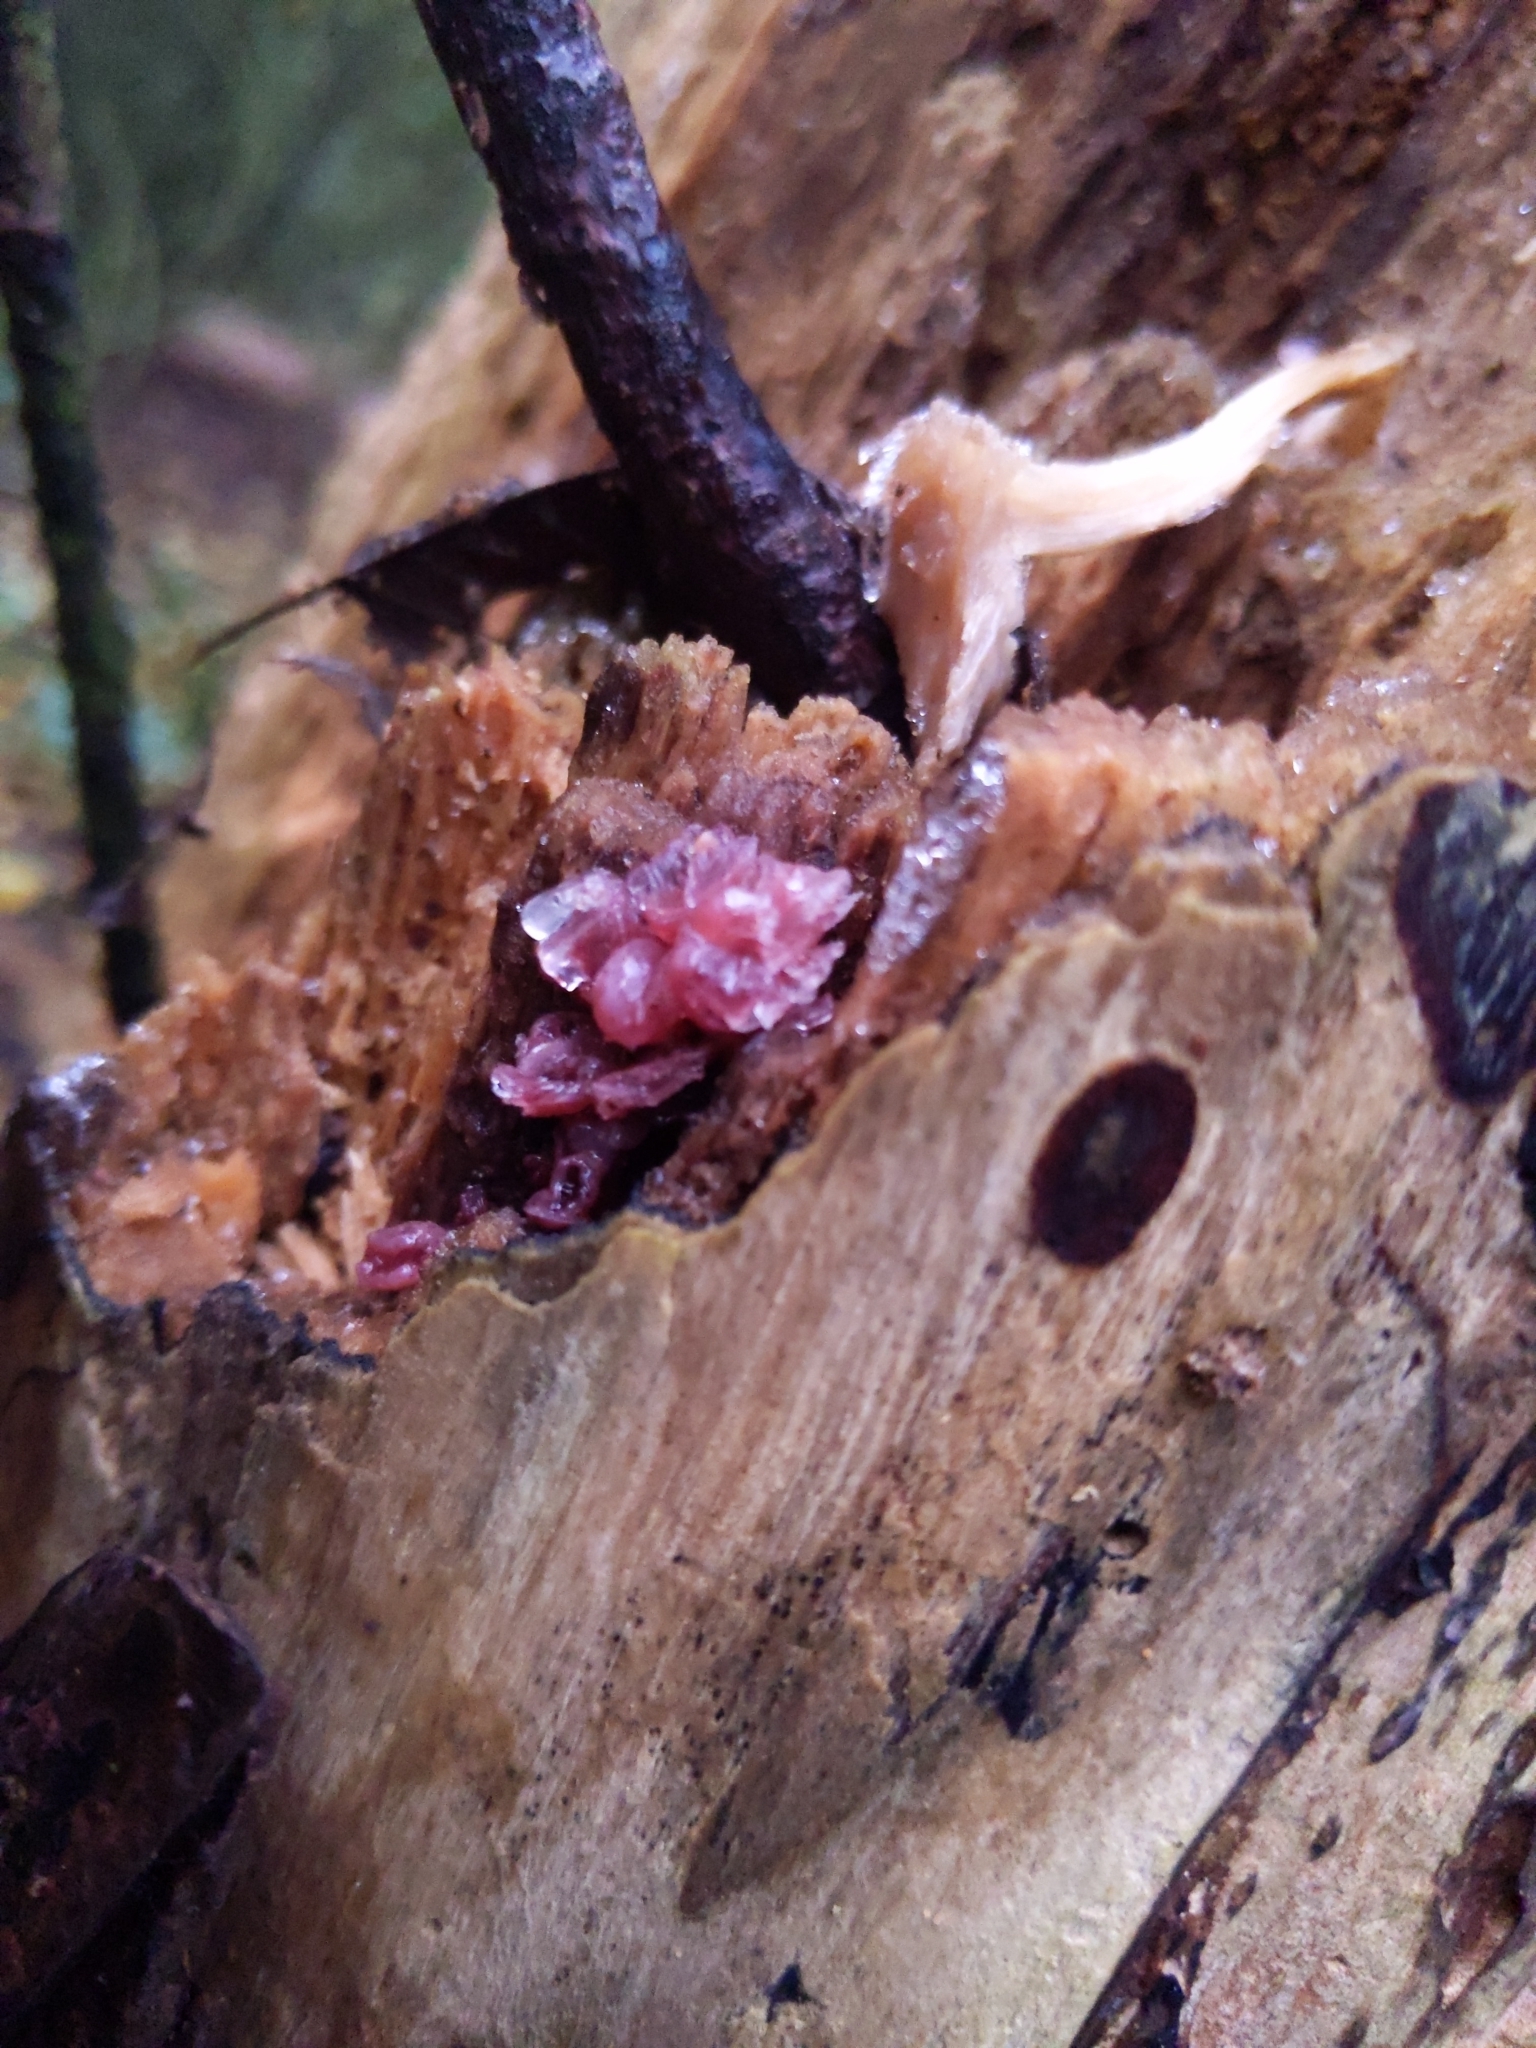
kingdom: Fungi
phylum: Ascomycota
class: Leotiomycetes
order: Helotiales
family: Gelatinodiscaceae
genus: Ascocoryne
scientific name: Ascocoryne sarcoides
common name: Purple jellydisc
